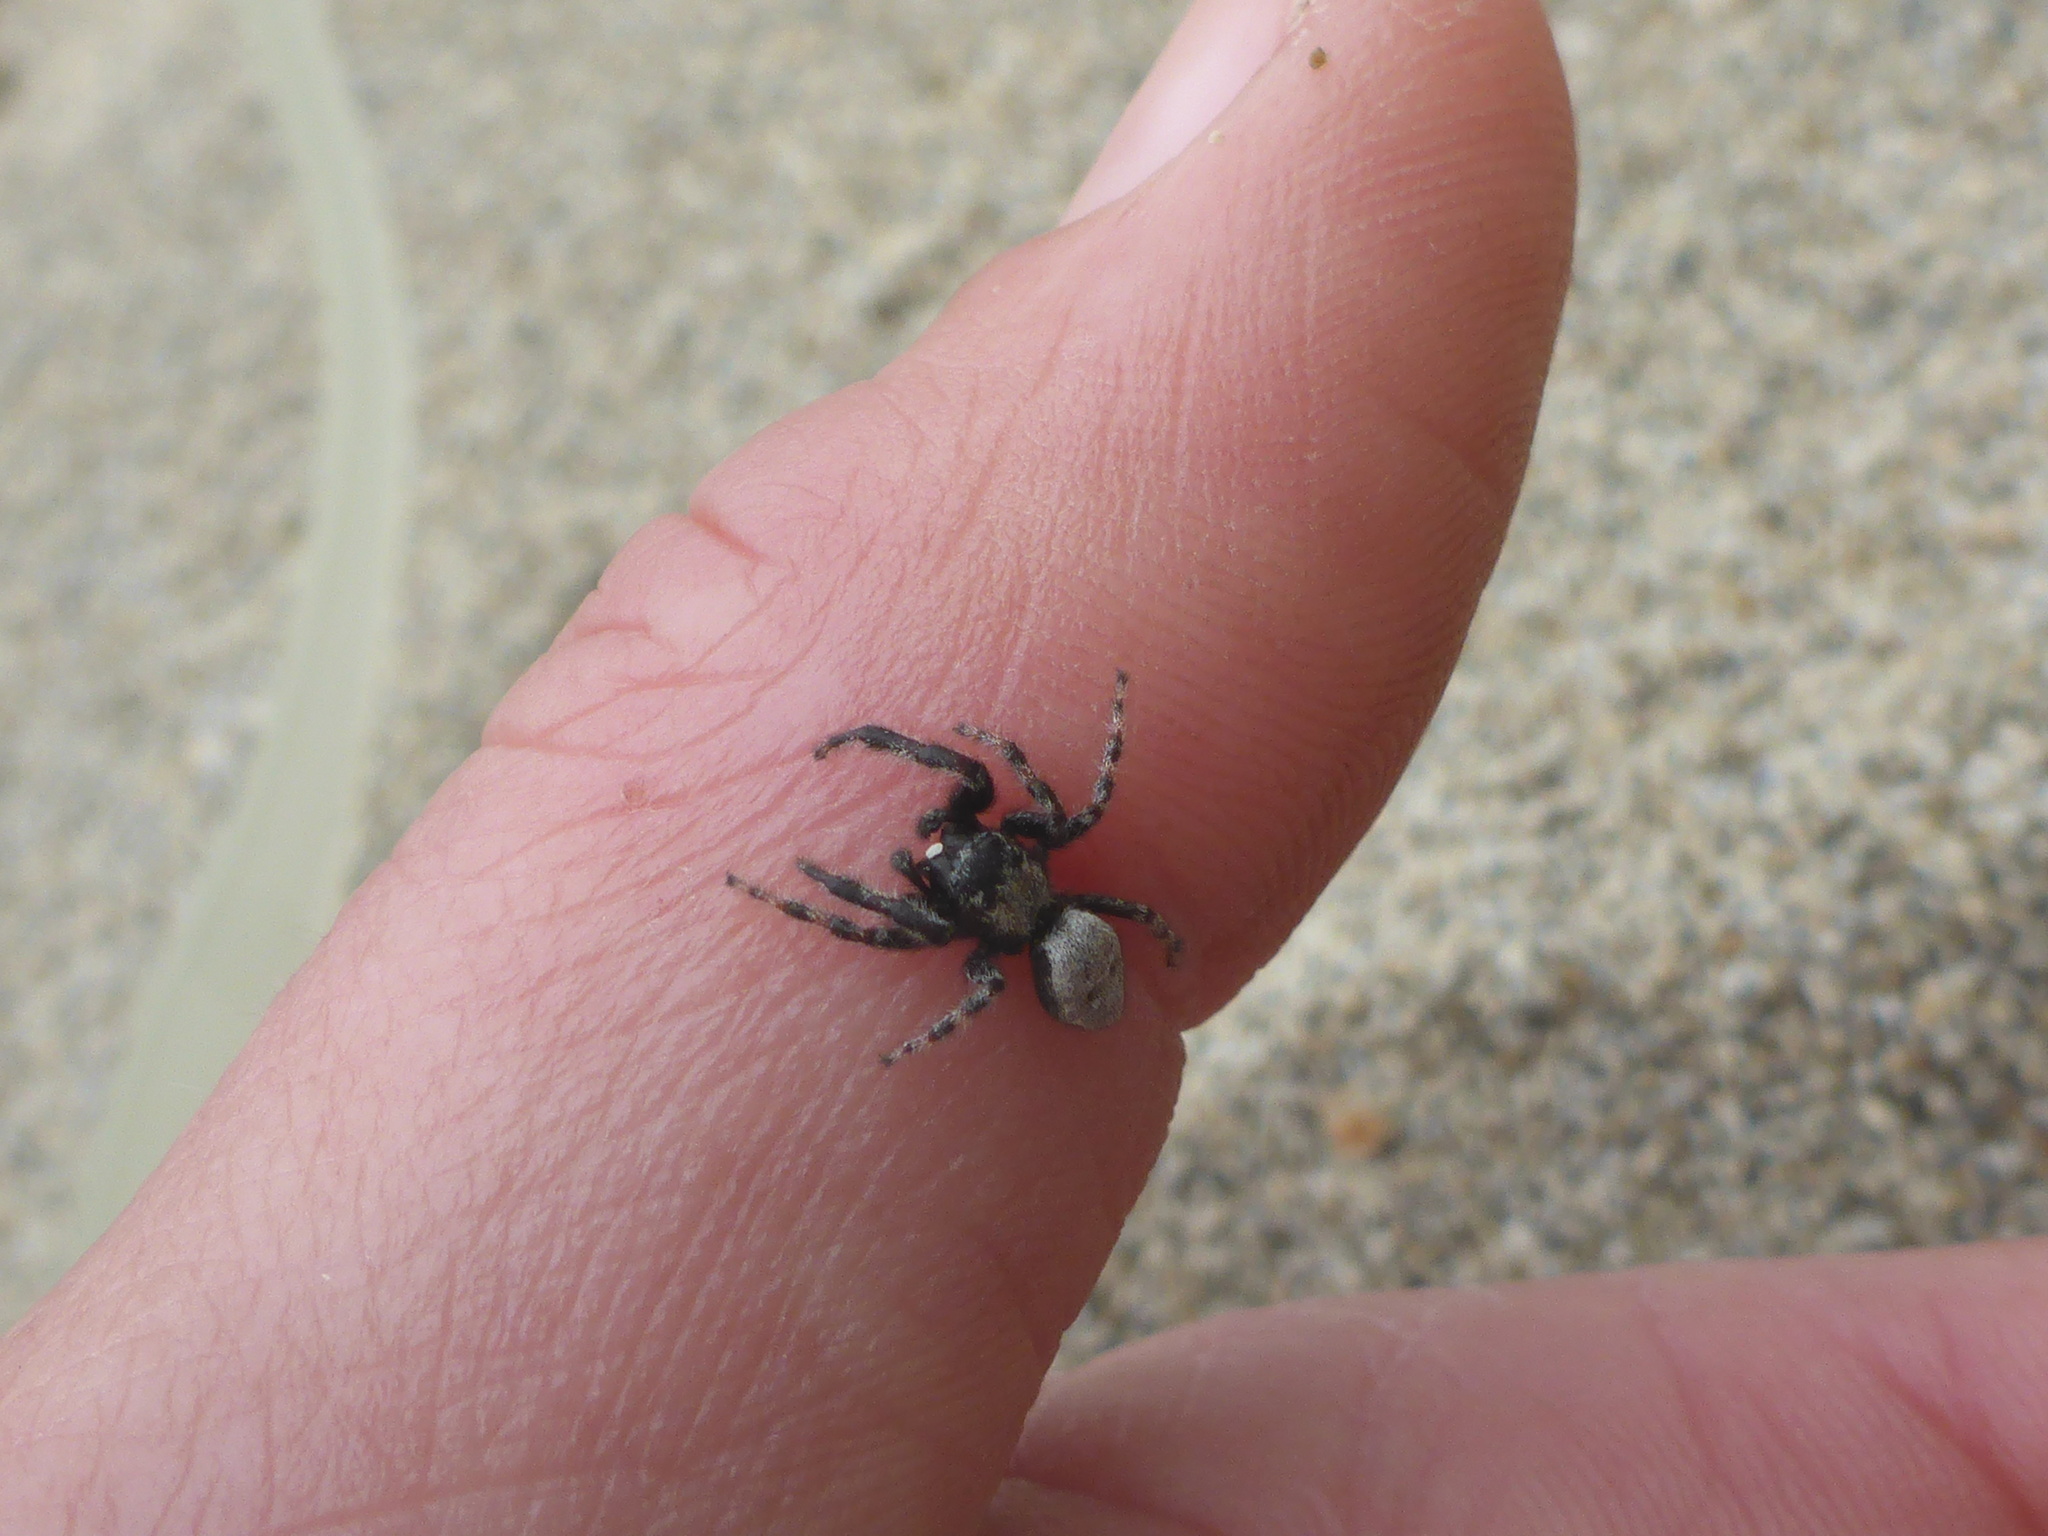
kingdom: Animalia
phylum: Arthropoda
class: Arachnida
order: Araneae
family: Salticidae
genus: Terralonus
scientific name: Terralonus californicus
